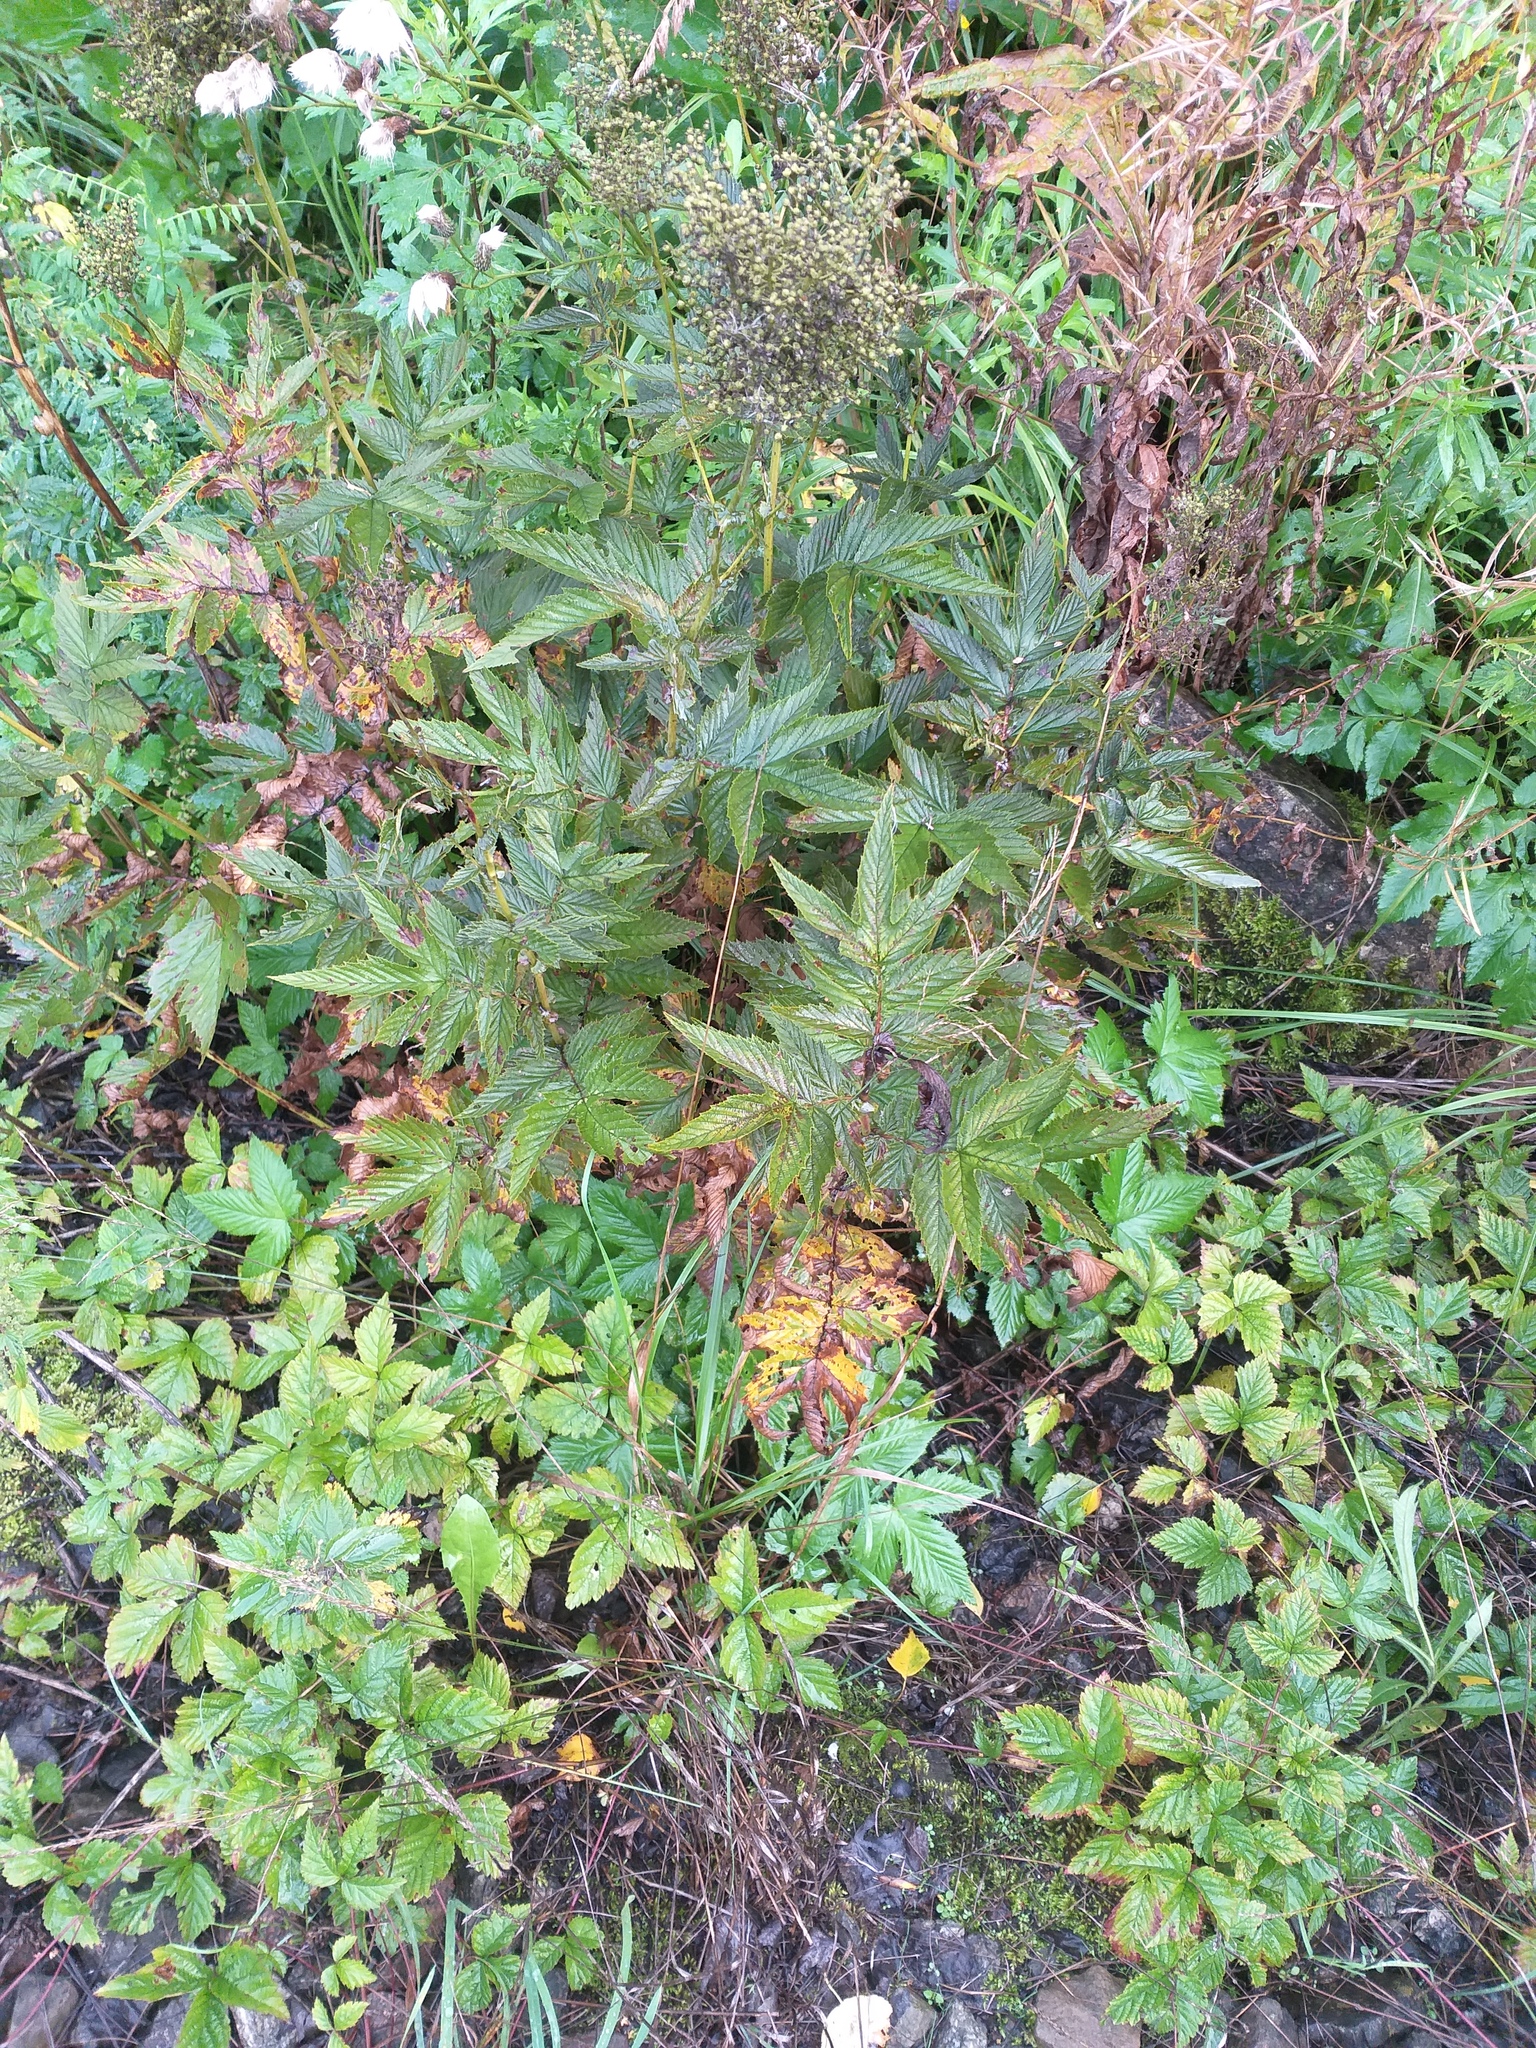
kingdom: Plantae
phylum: Tracheophyta
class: Magnoliopsida
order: Rosales
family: Rosaceae
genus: Filipendula
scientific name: Filipendula ulmaria
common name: Meadowsweet
